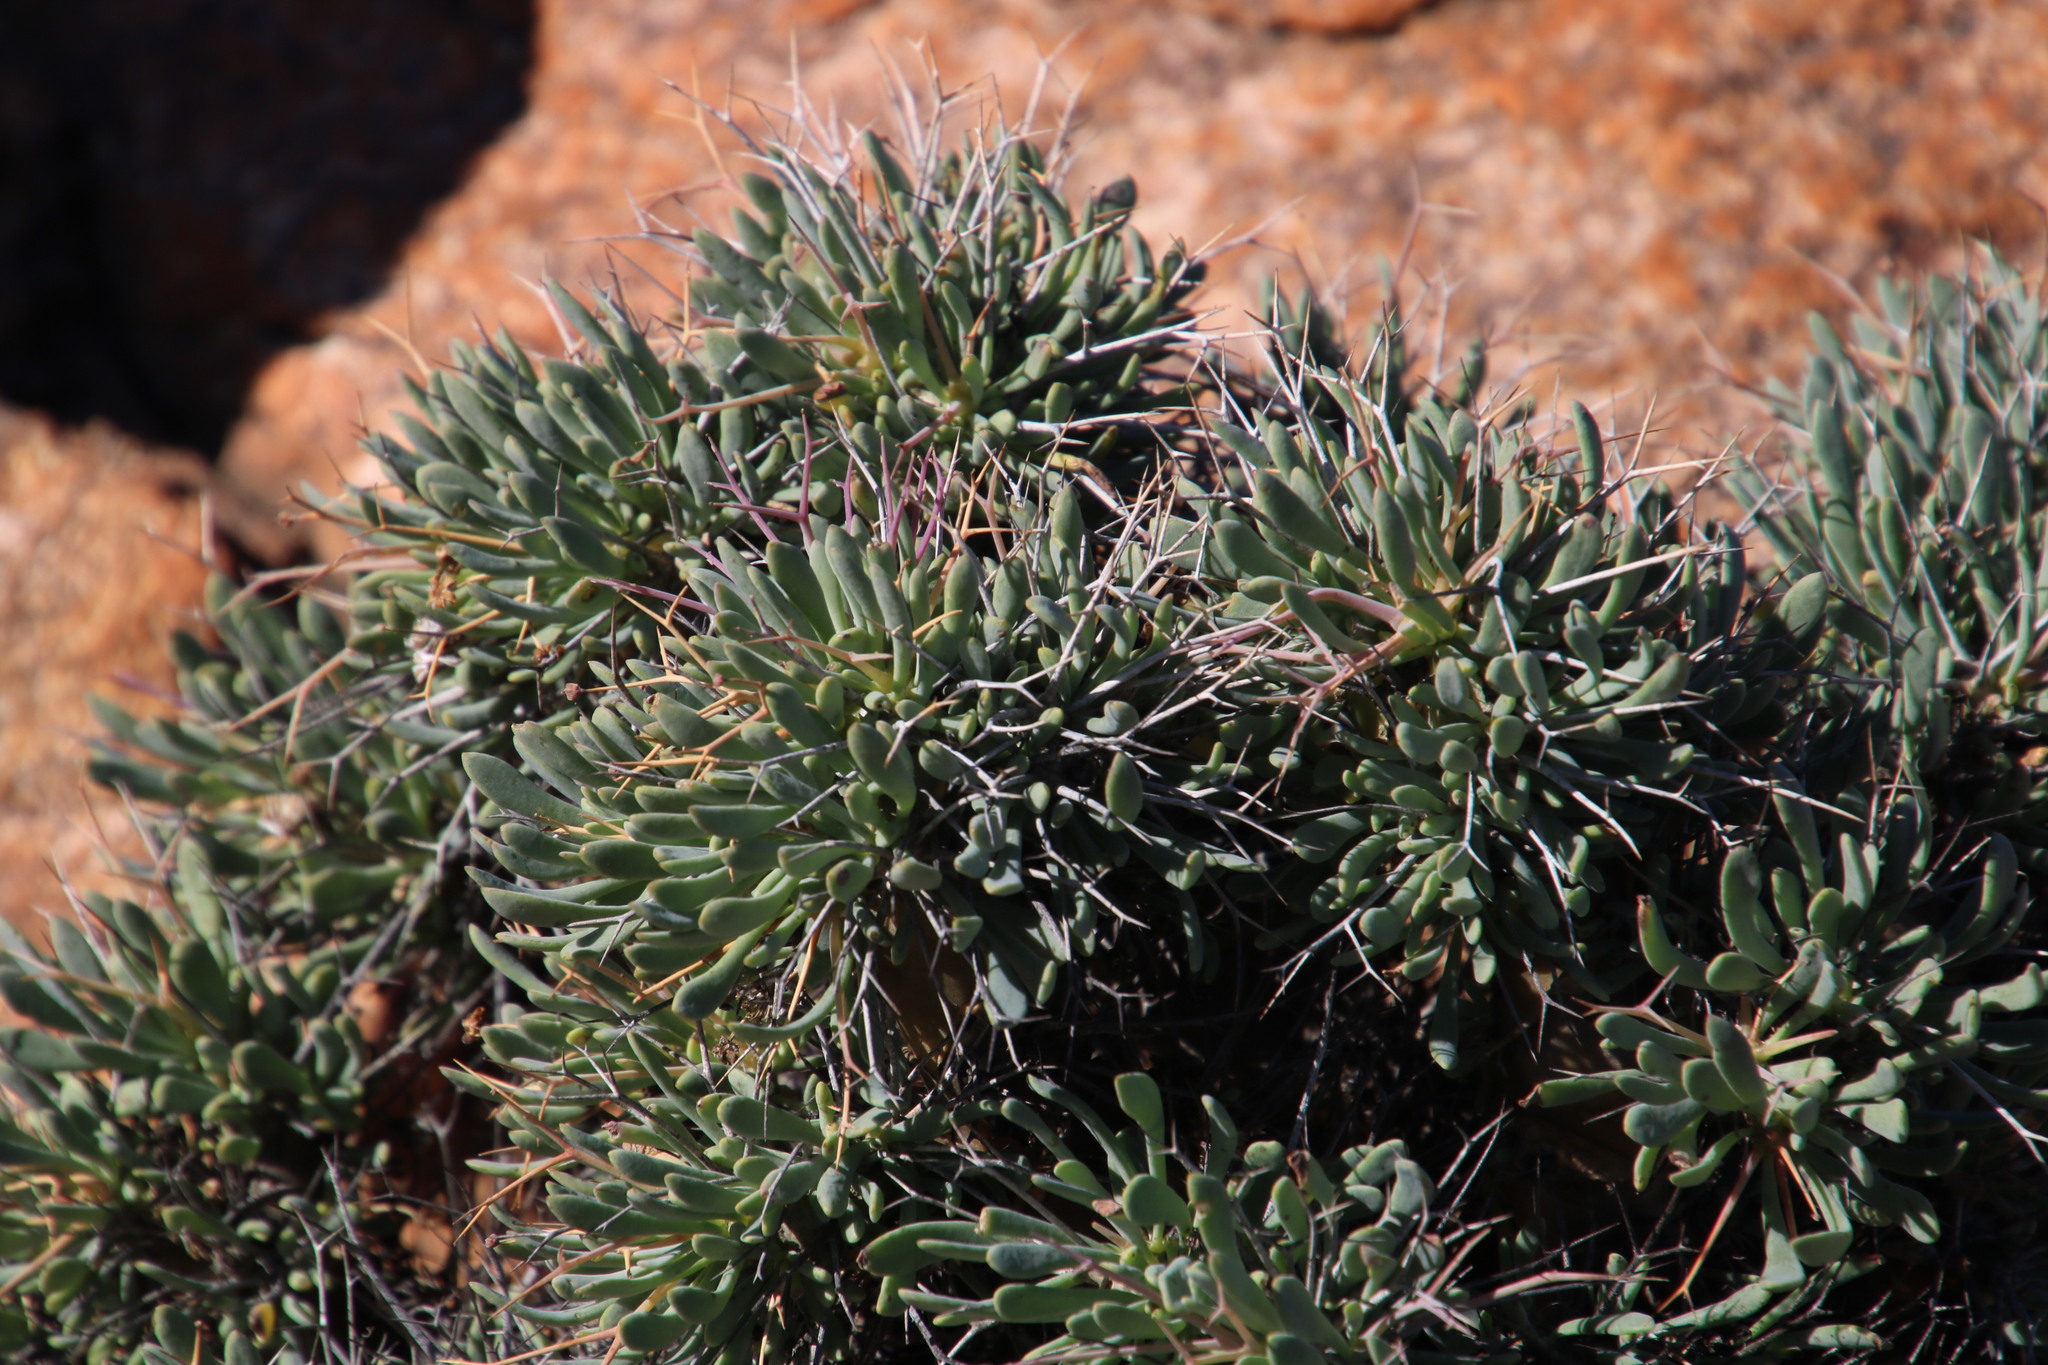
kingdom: Plantae
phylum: Tracheophyta
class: Magnoliopsida
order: Asterales
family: Asteraceae
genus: Othonna
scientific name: Othonna euphorbioides
